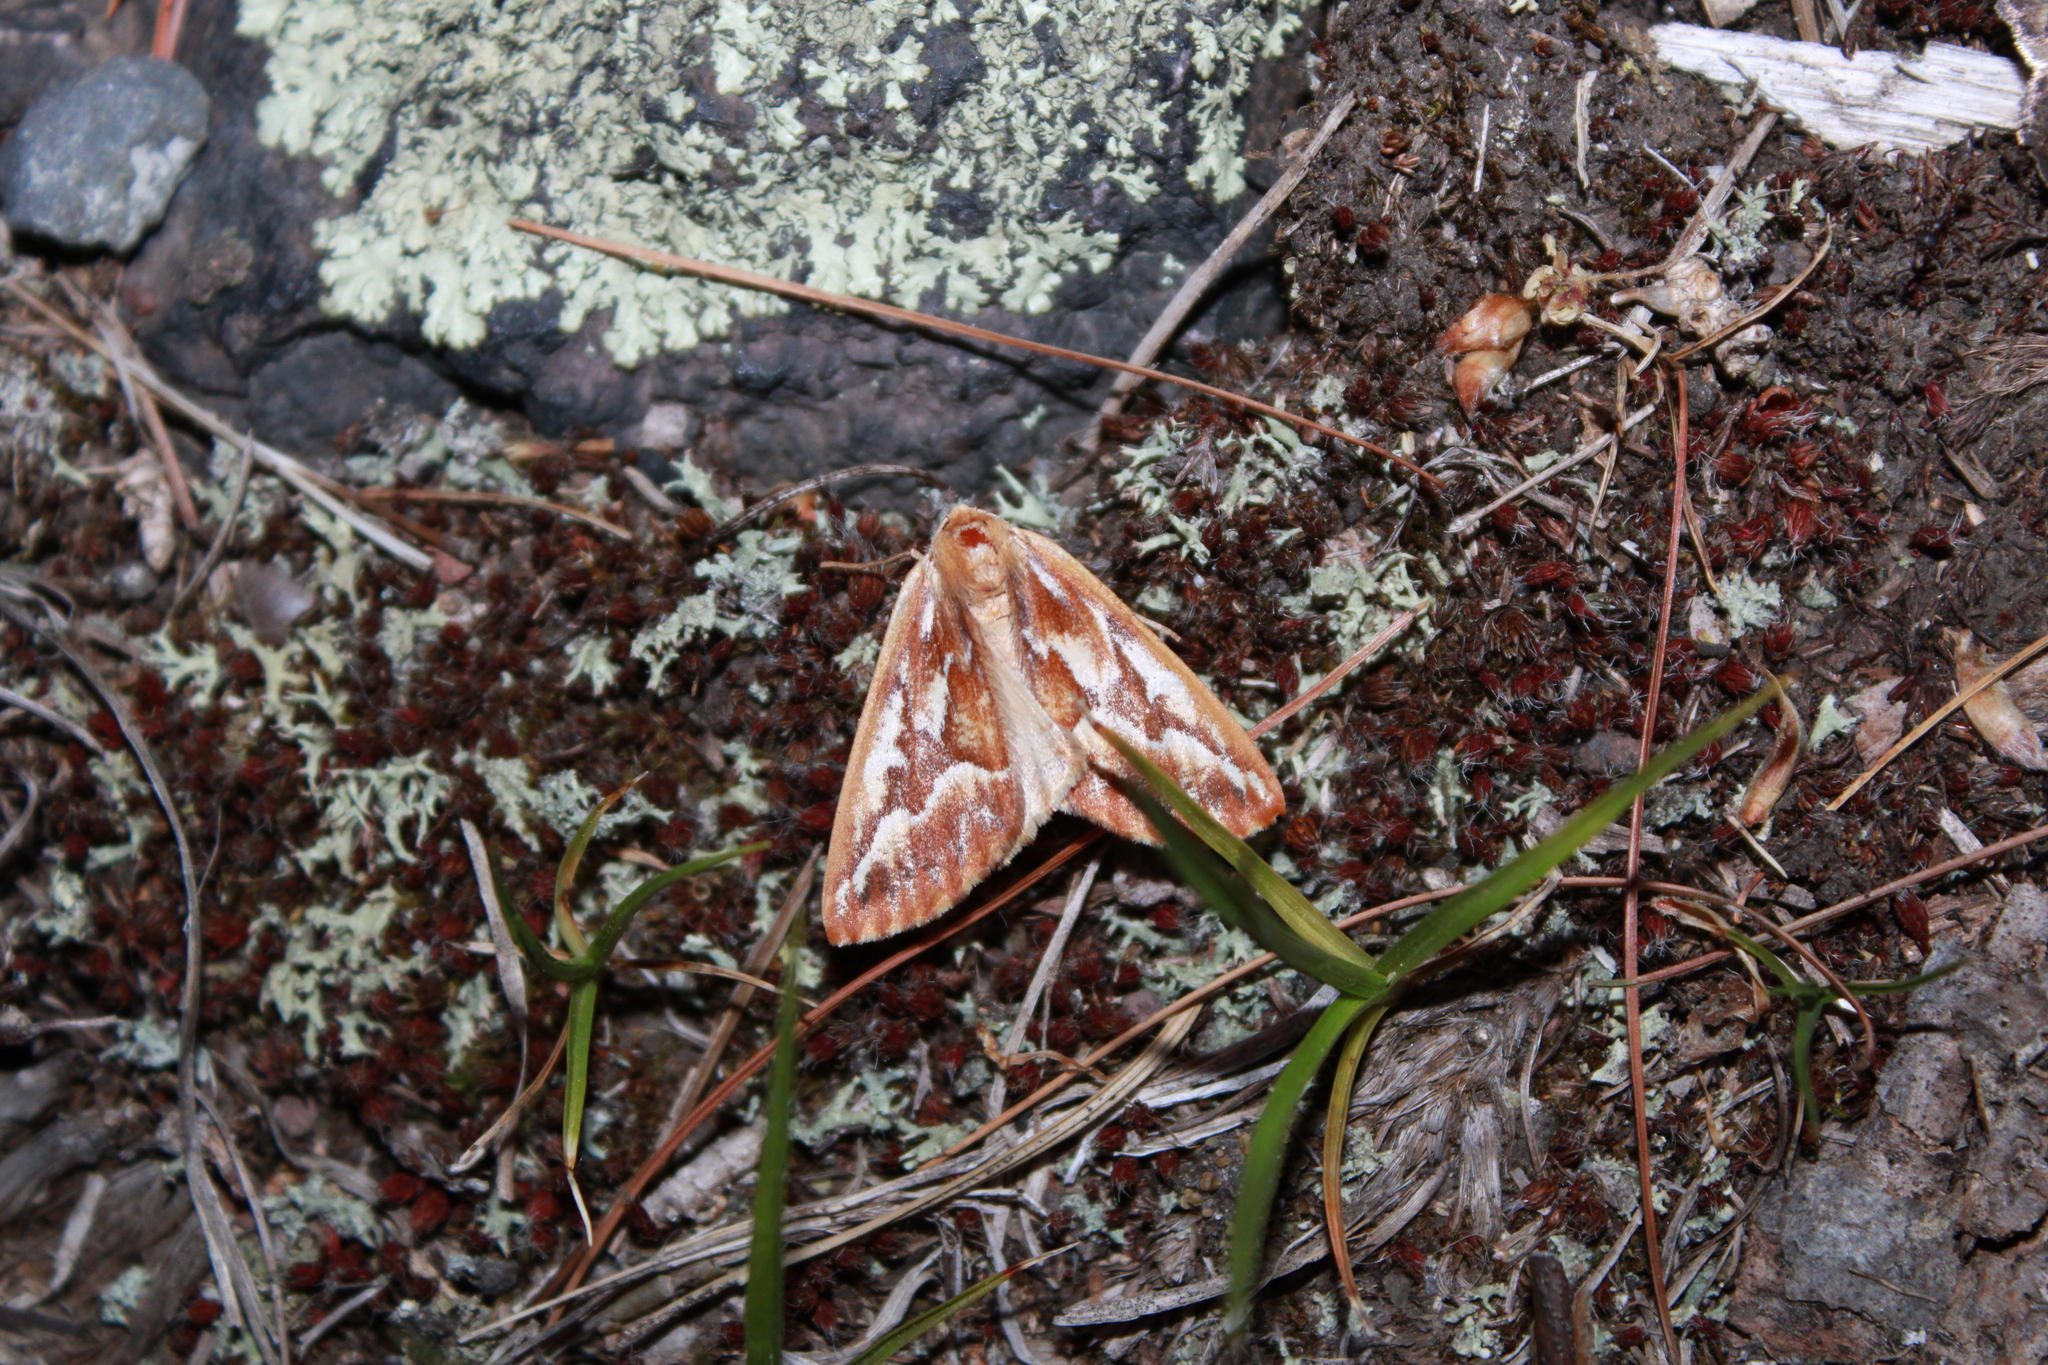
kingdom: Animalia
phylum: Arthropoda
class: Insecta
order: Lepidoptera
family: Geometridae
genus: Caripeta
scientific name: Caripeta piniata
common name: Northern pine looper moth
